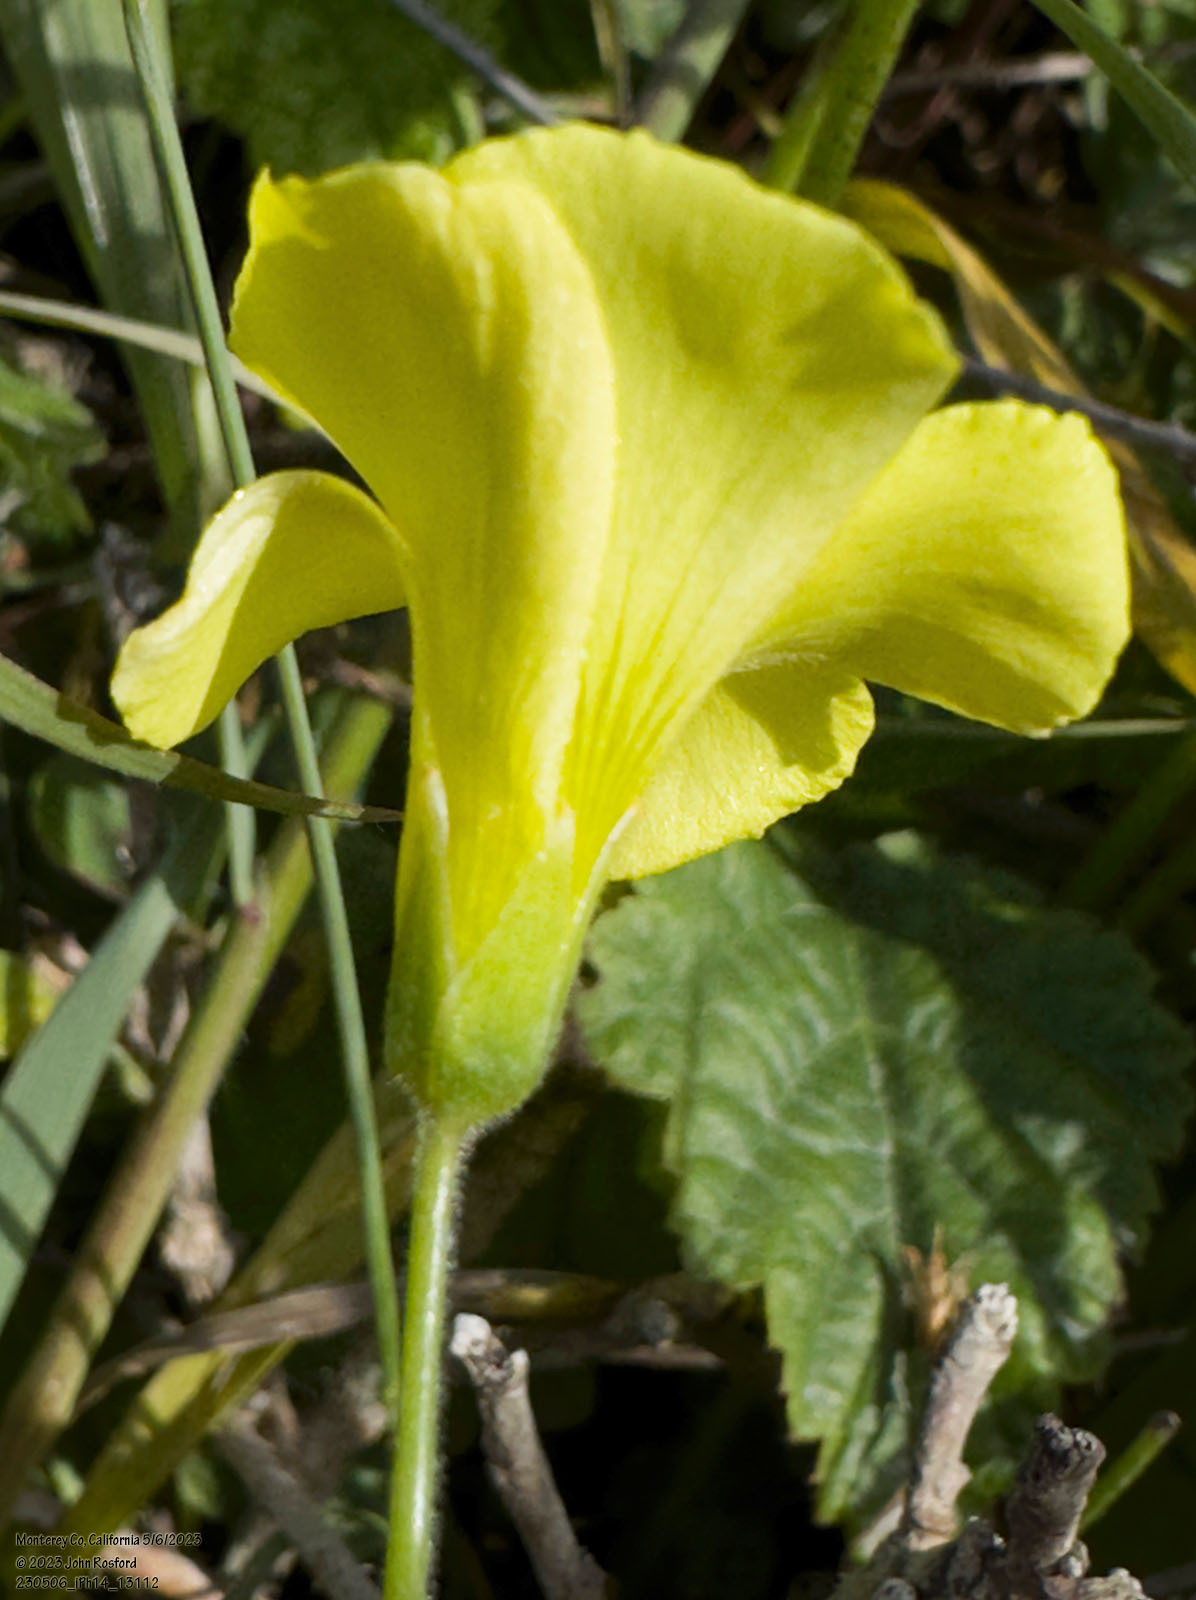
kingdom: Plantae
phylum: Tracheophyta
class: Magnoliopsida
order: Oxalidales
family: Oxalidaceae
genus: Oxalis
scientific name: Oxalis pes-caprae
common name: Bermuda-buttercup
